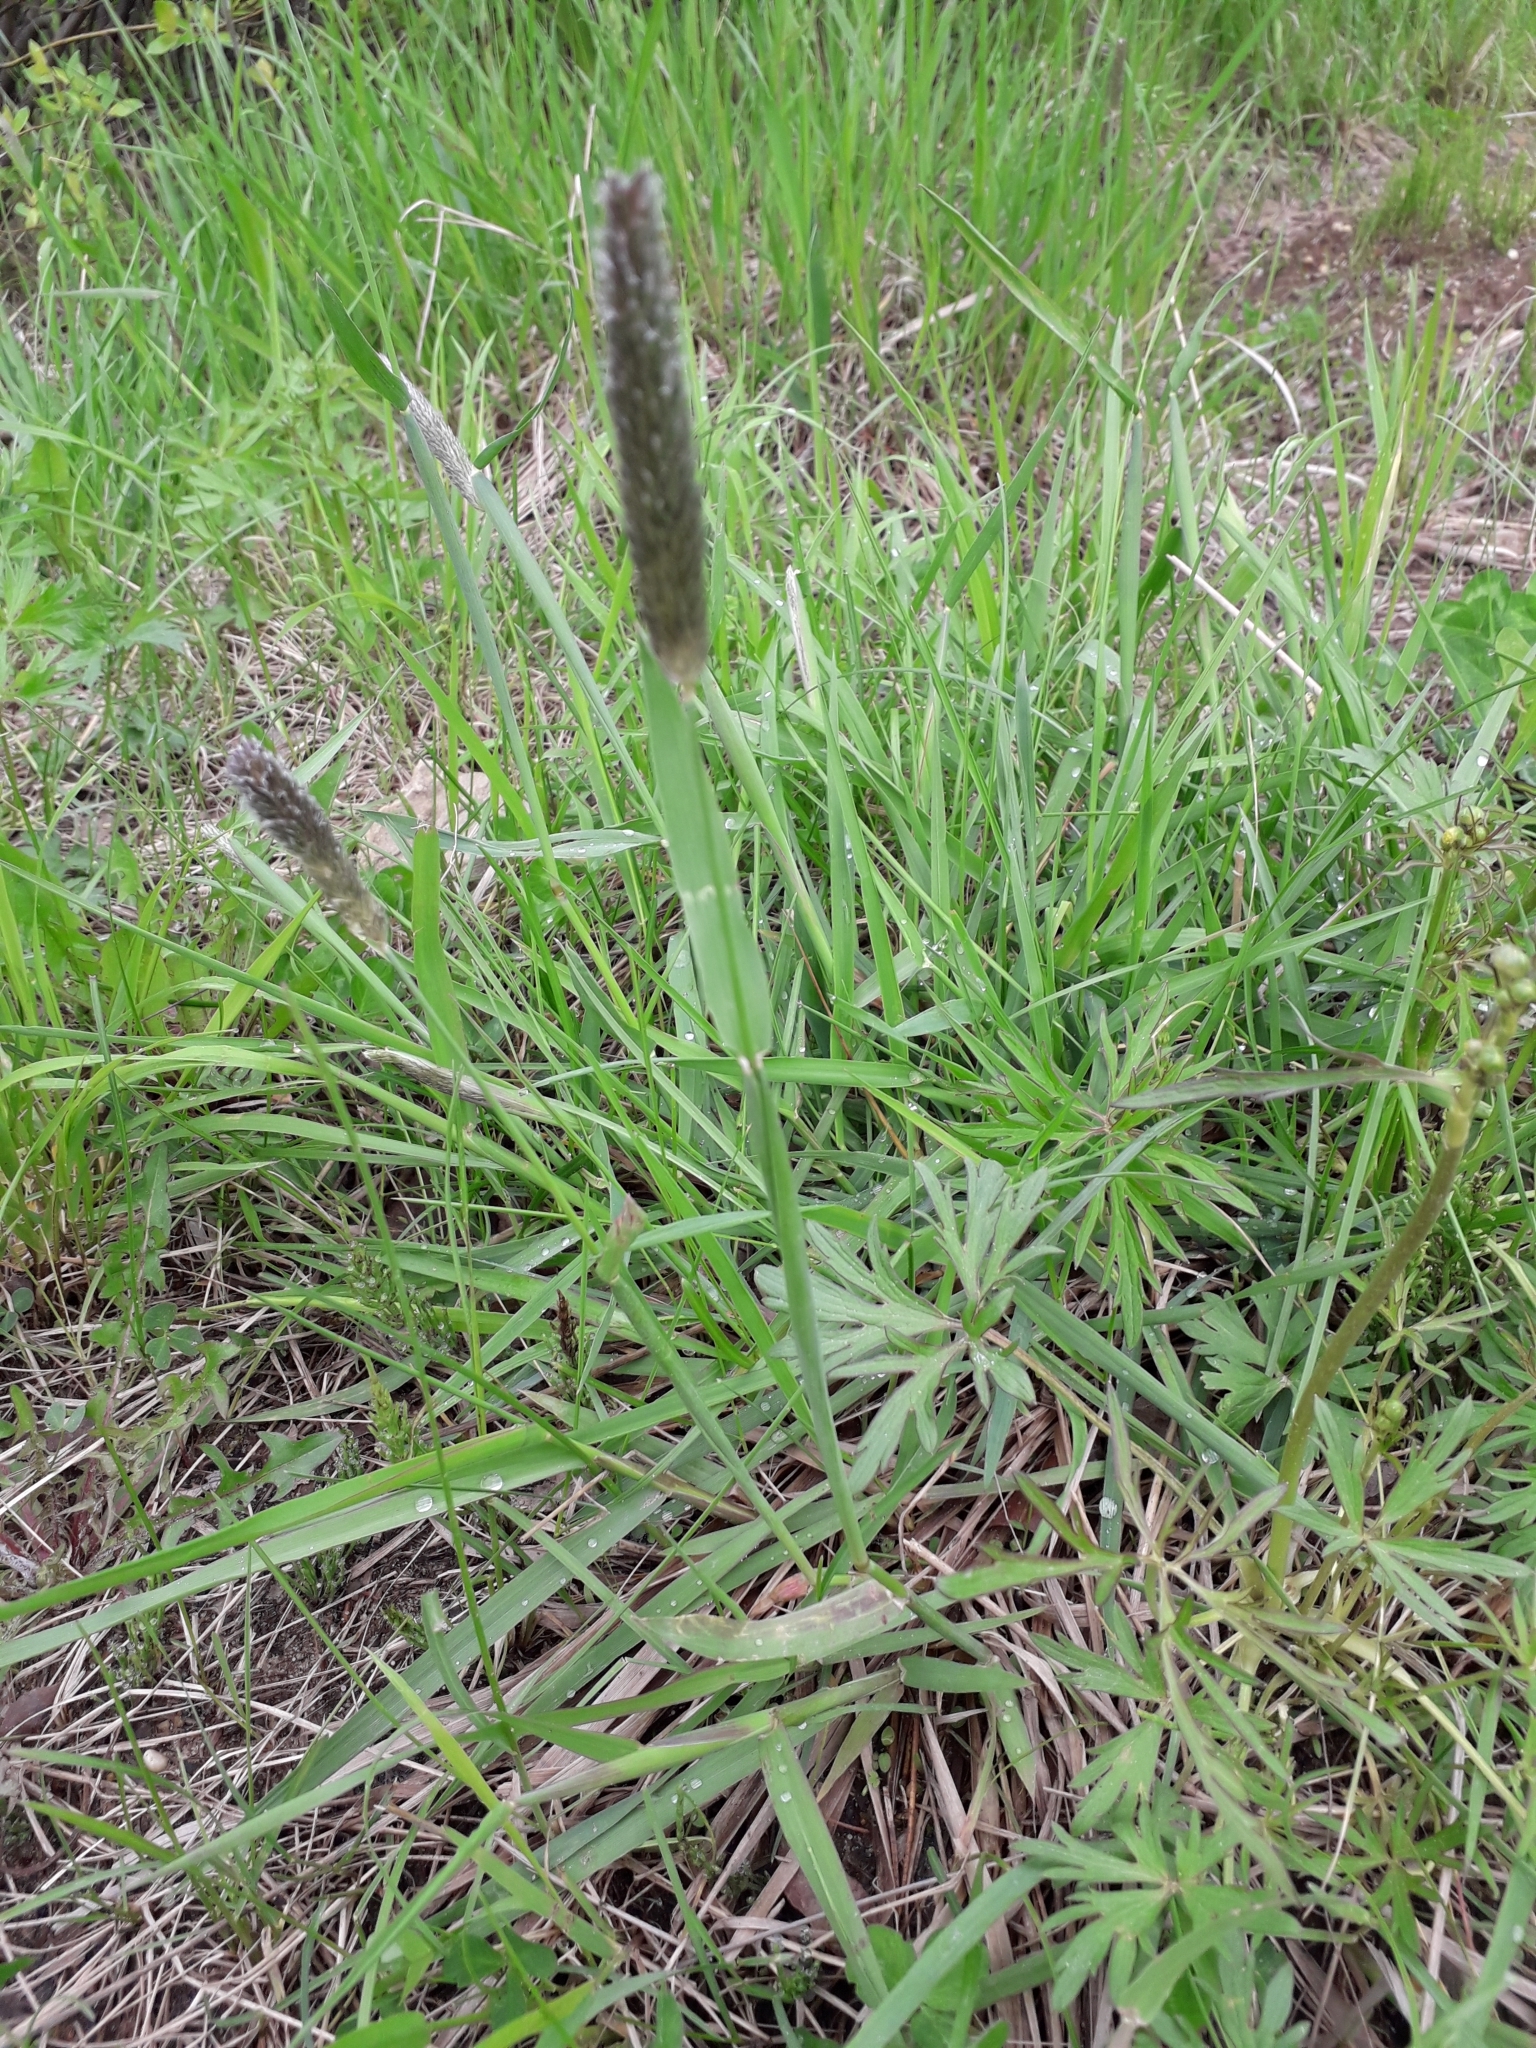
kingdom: Plantae
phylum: Tracheophyta
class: Liliopsida
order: Poales
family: Poaceae
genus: Alopecurus
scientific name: Alopecurus pratensis
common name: Meadow foxtail
